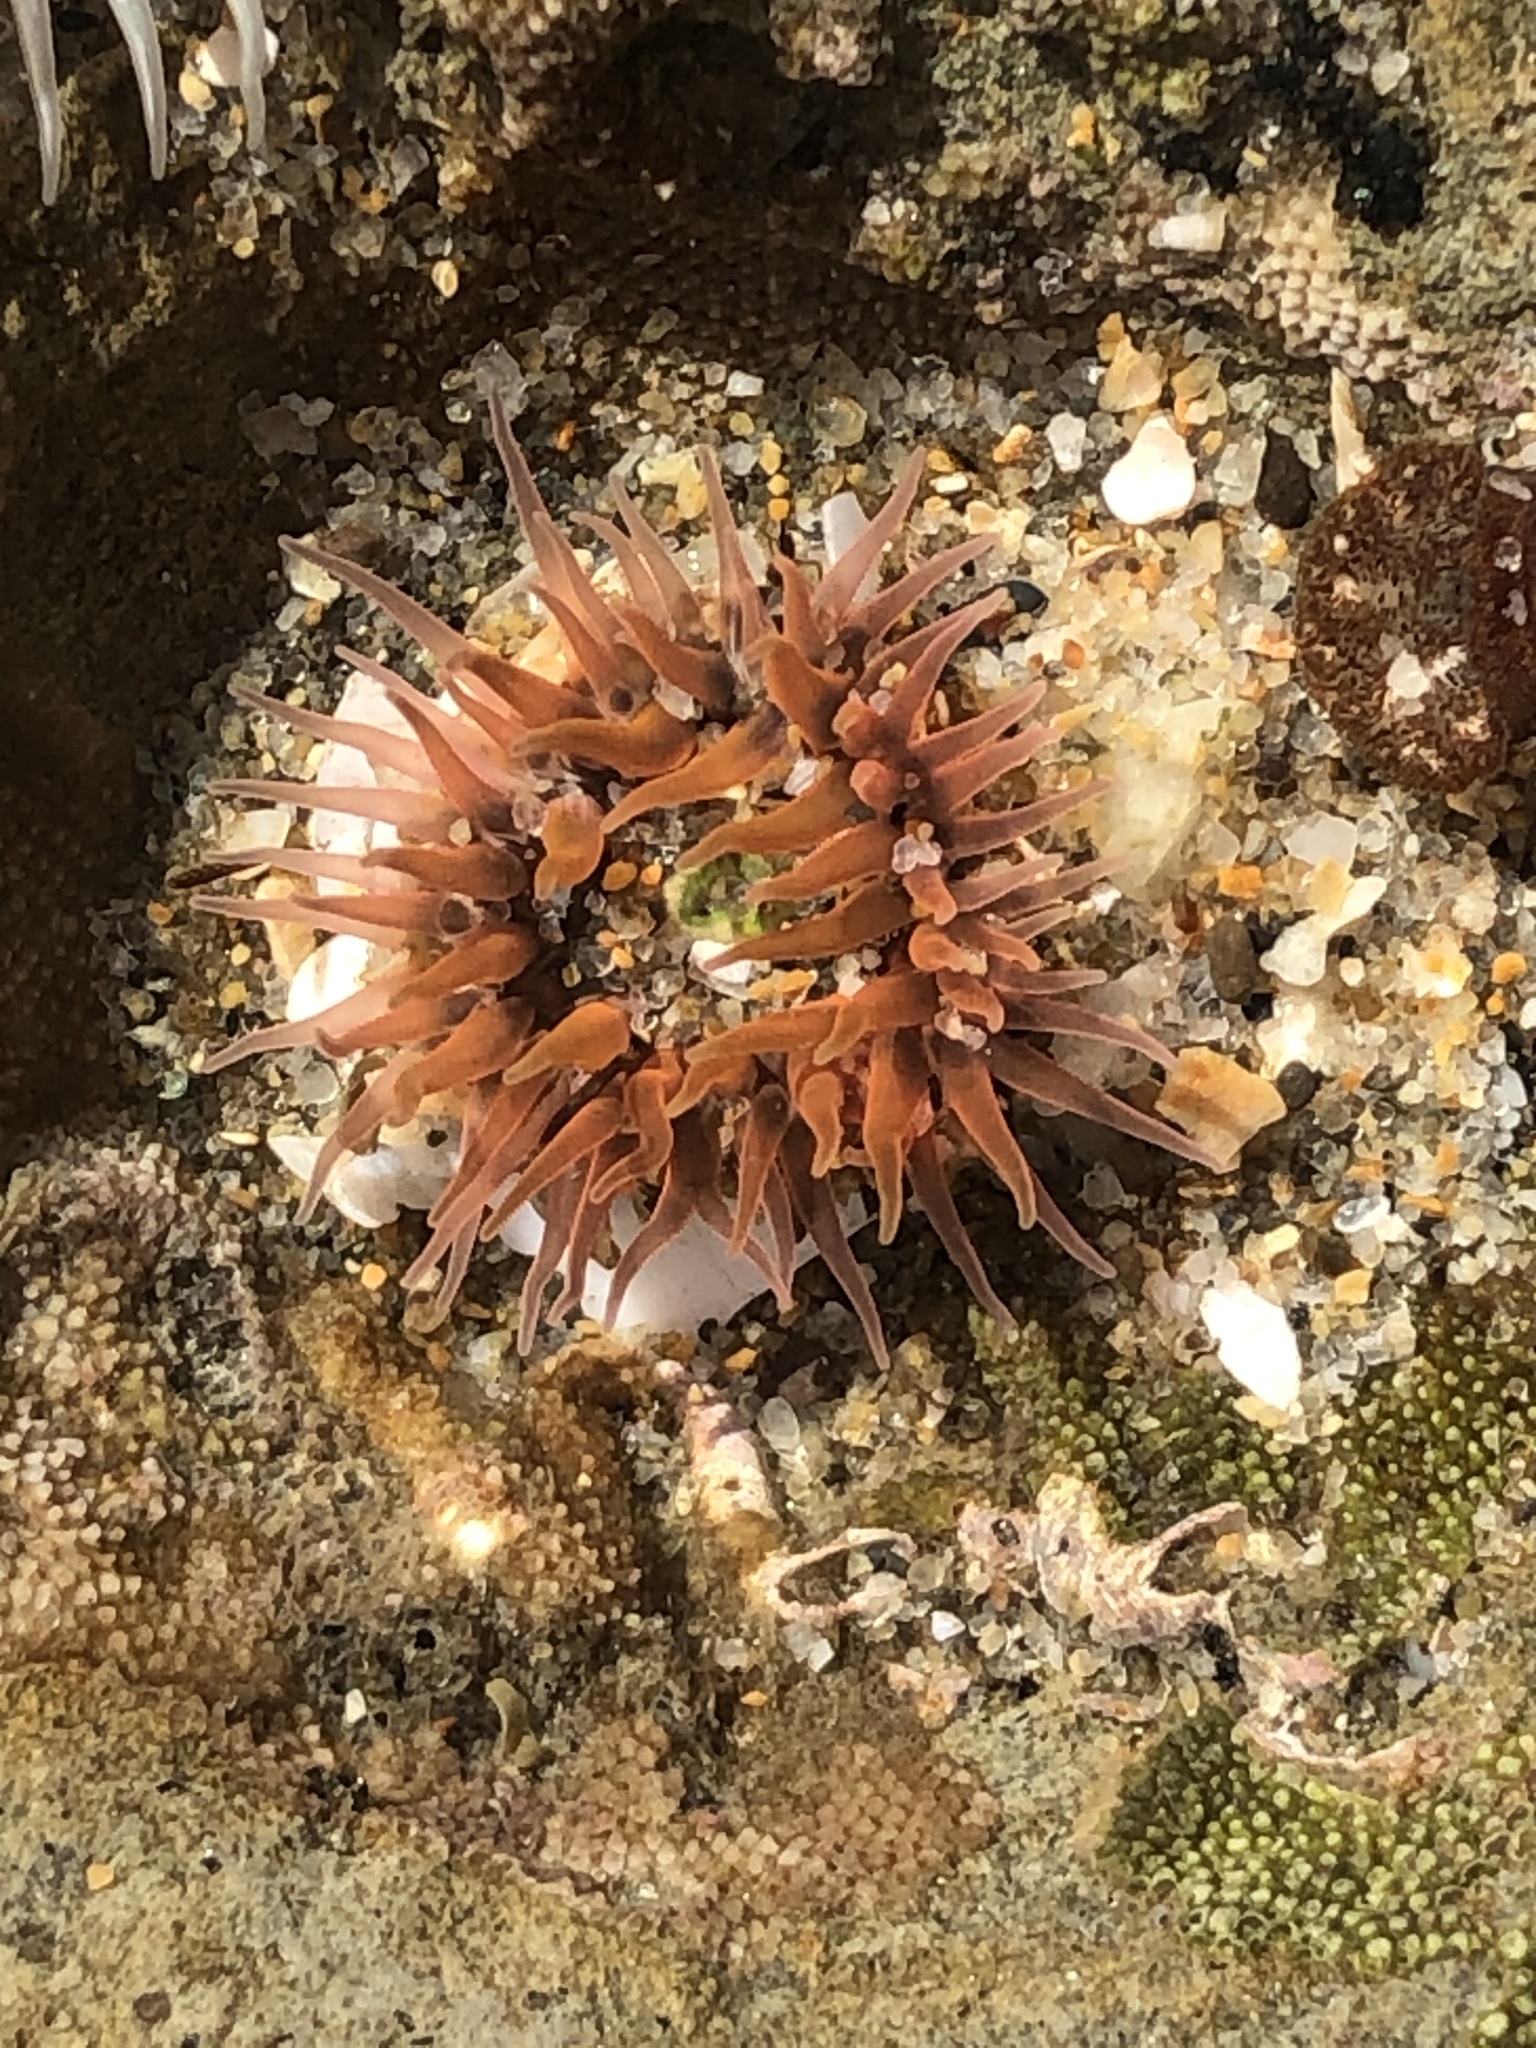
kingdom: Animalia
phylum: Cnidaria
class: Anthozoa
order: Actiniaria
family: Actiniidae
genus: Anthopleura
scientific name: Anthopleura artemisia
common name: Buried sea anemone
